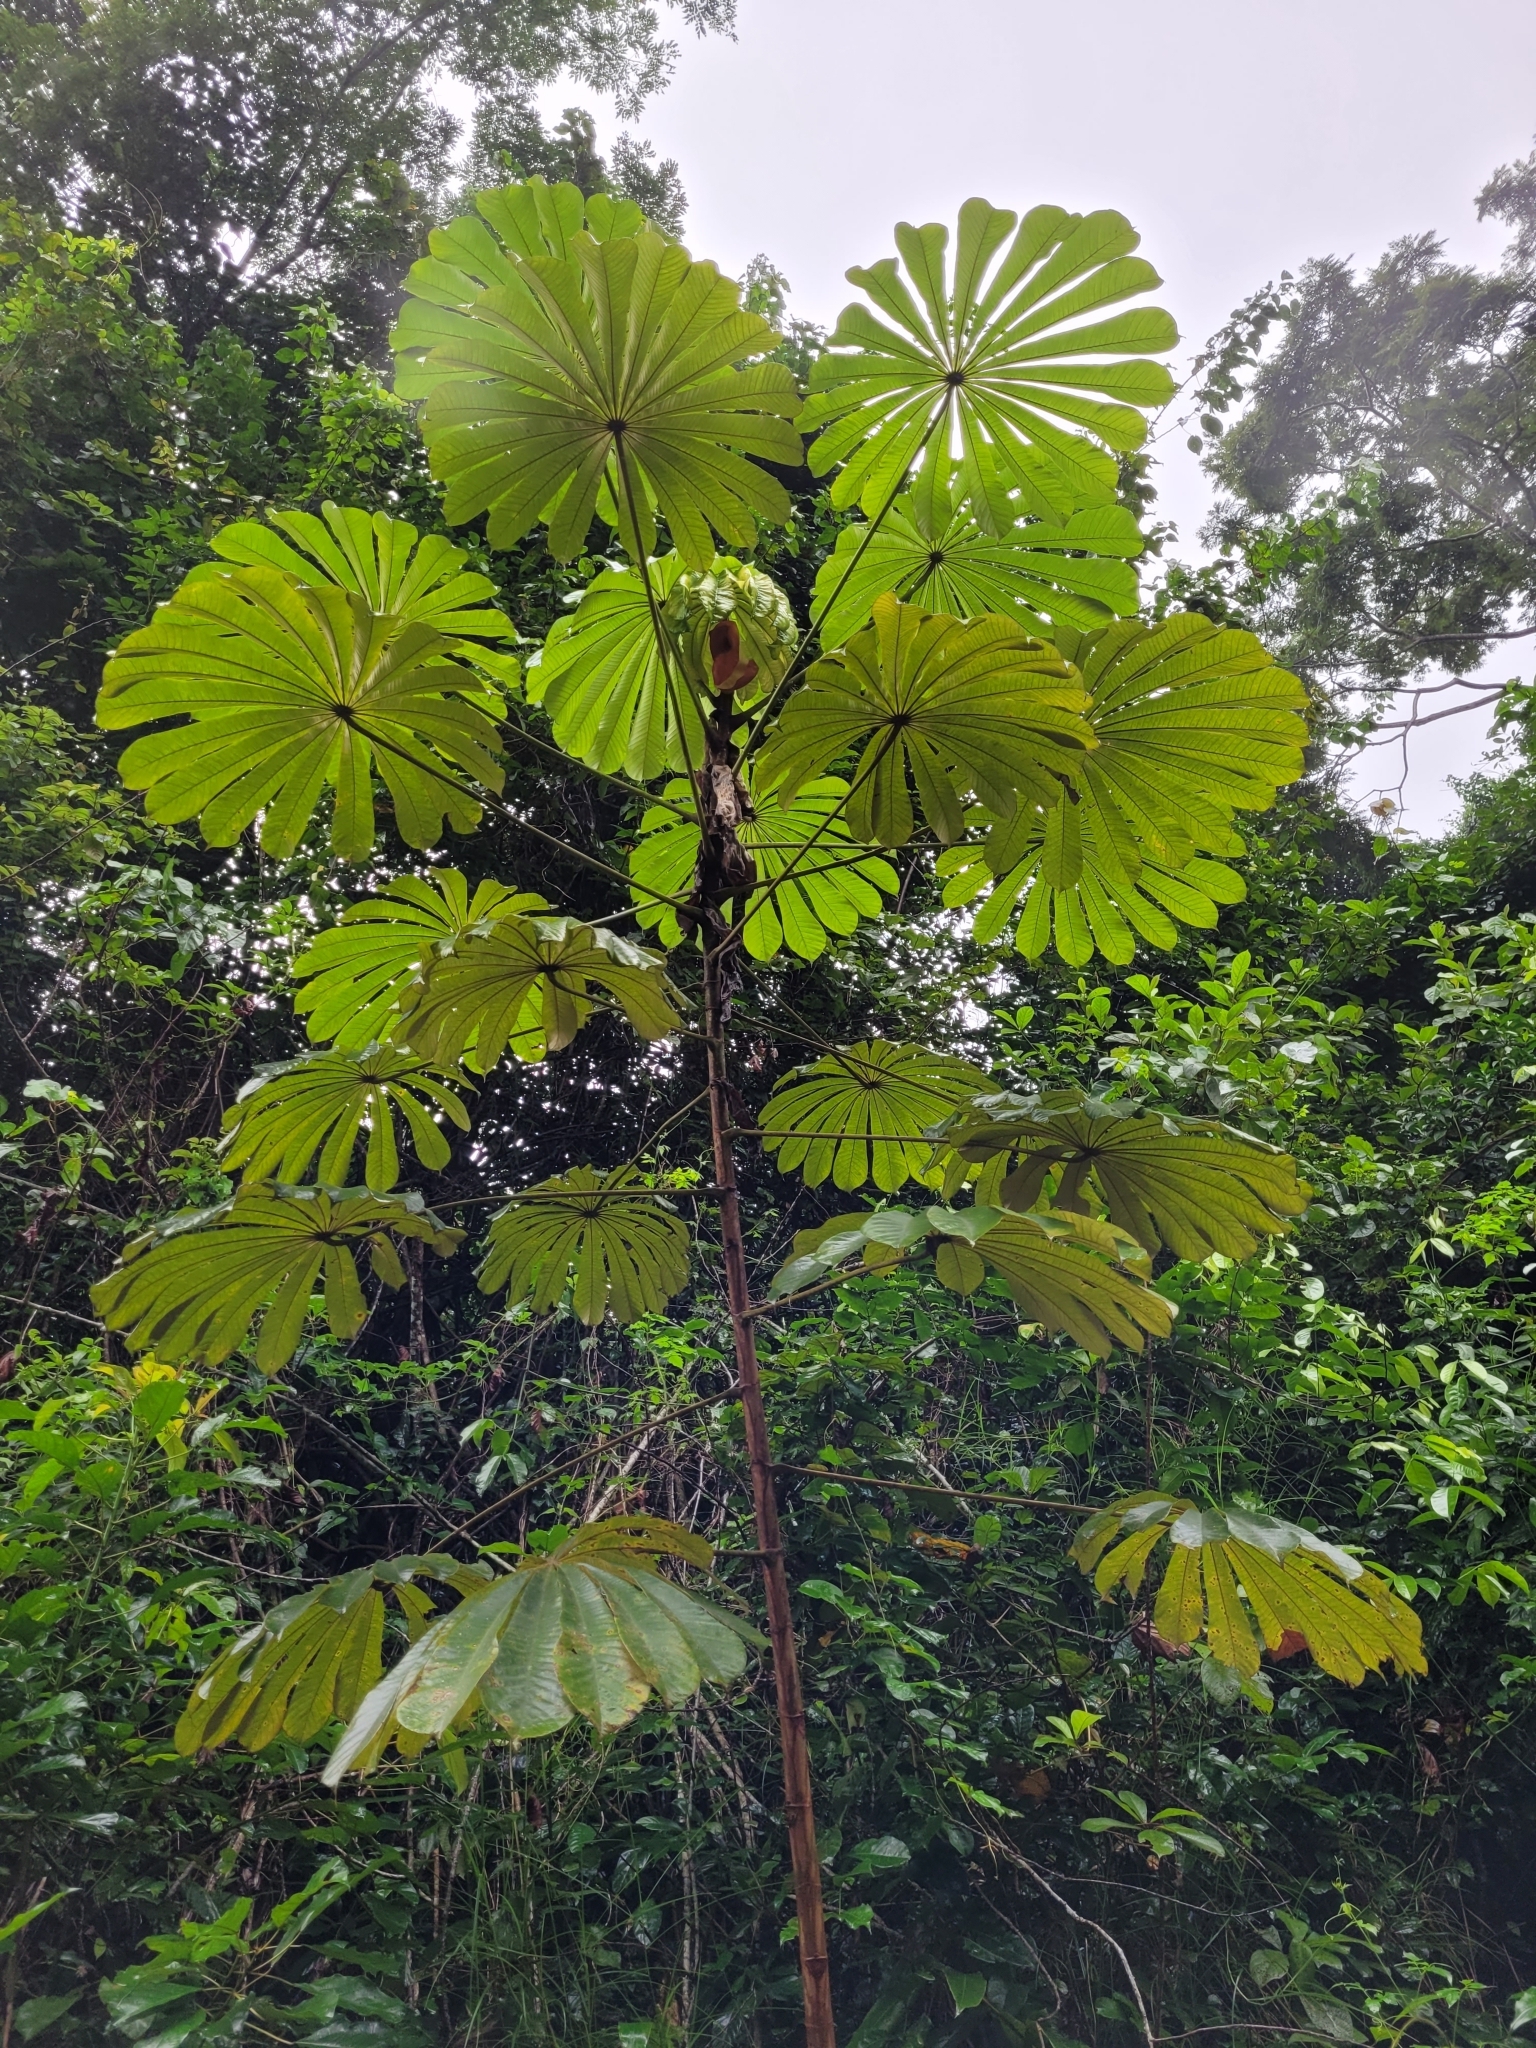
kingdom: Plantae
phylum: Tracheophyta
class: Magnoliopsida
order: Rosales
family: Urticaceae
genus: Musanga
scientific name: Musanga cecropioides
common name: African corkwood
